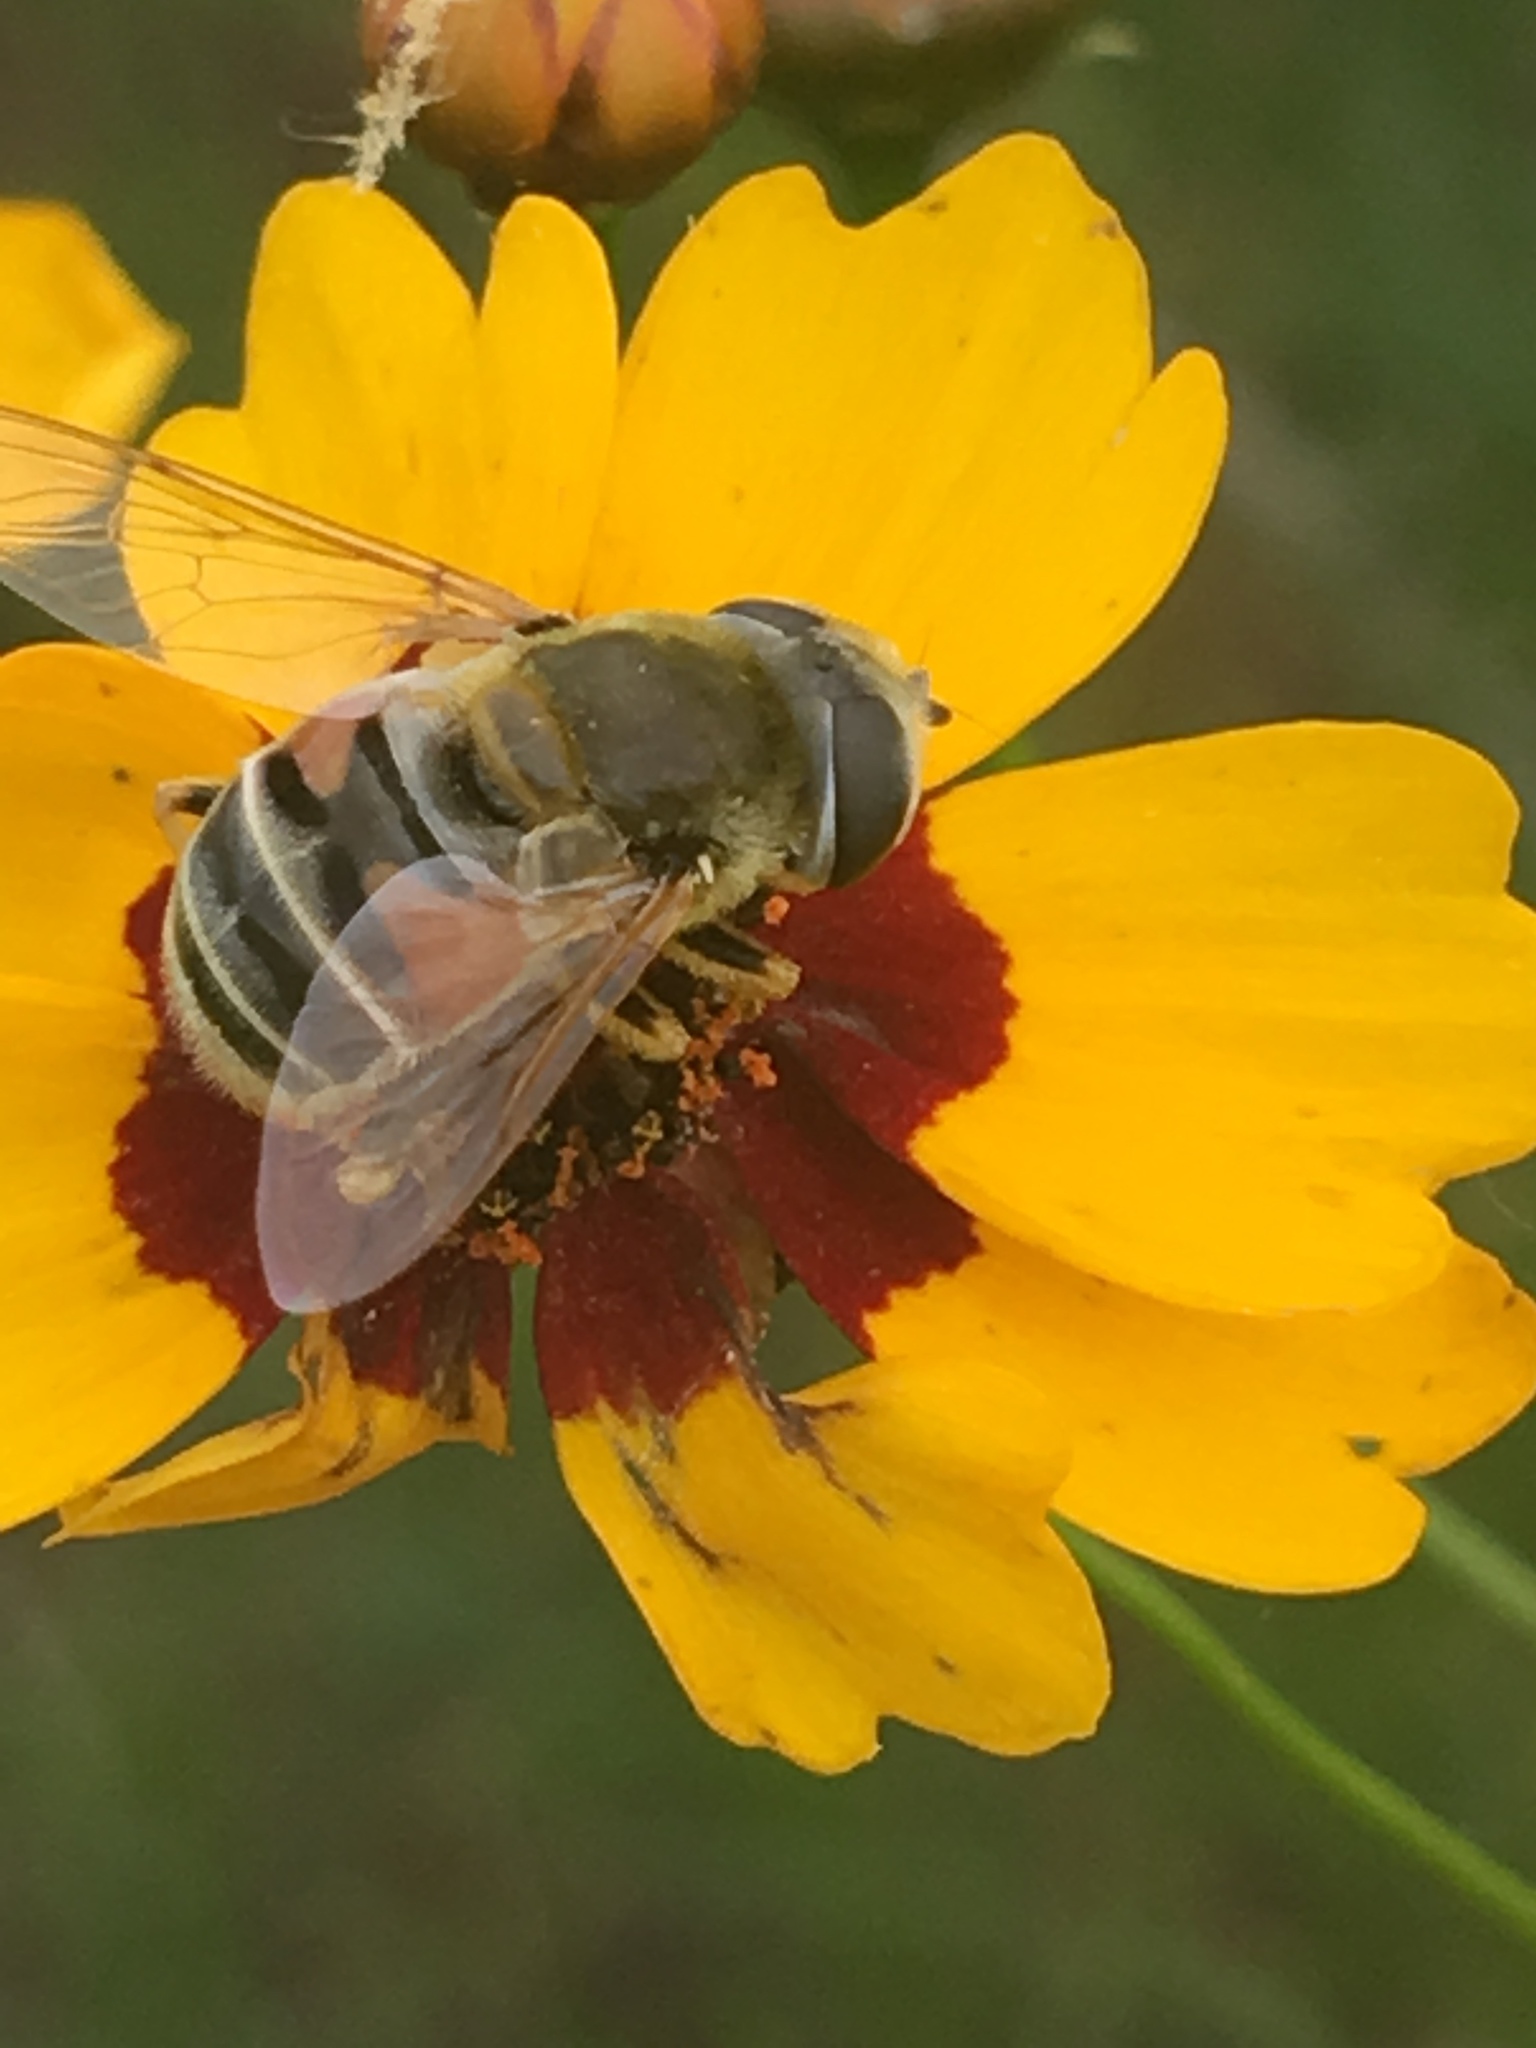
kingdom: Animalia
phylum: Arthropoda
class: Insecta
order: Diptera
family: Syrphidae
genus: Eristalis
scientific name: Eristalis stipator
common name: Yellow-shouldered drone fly
